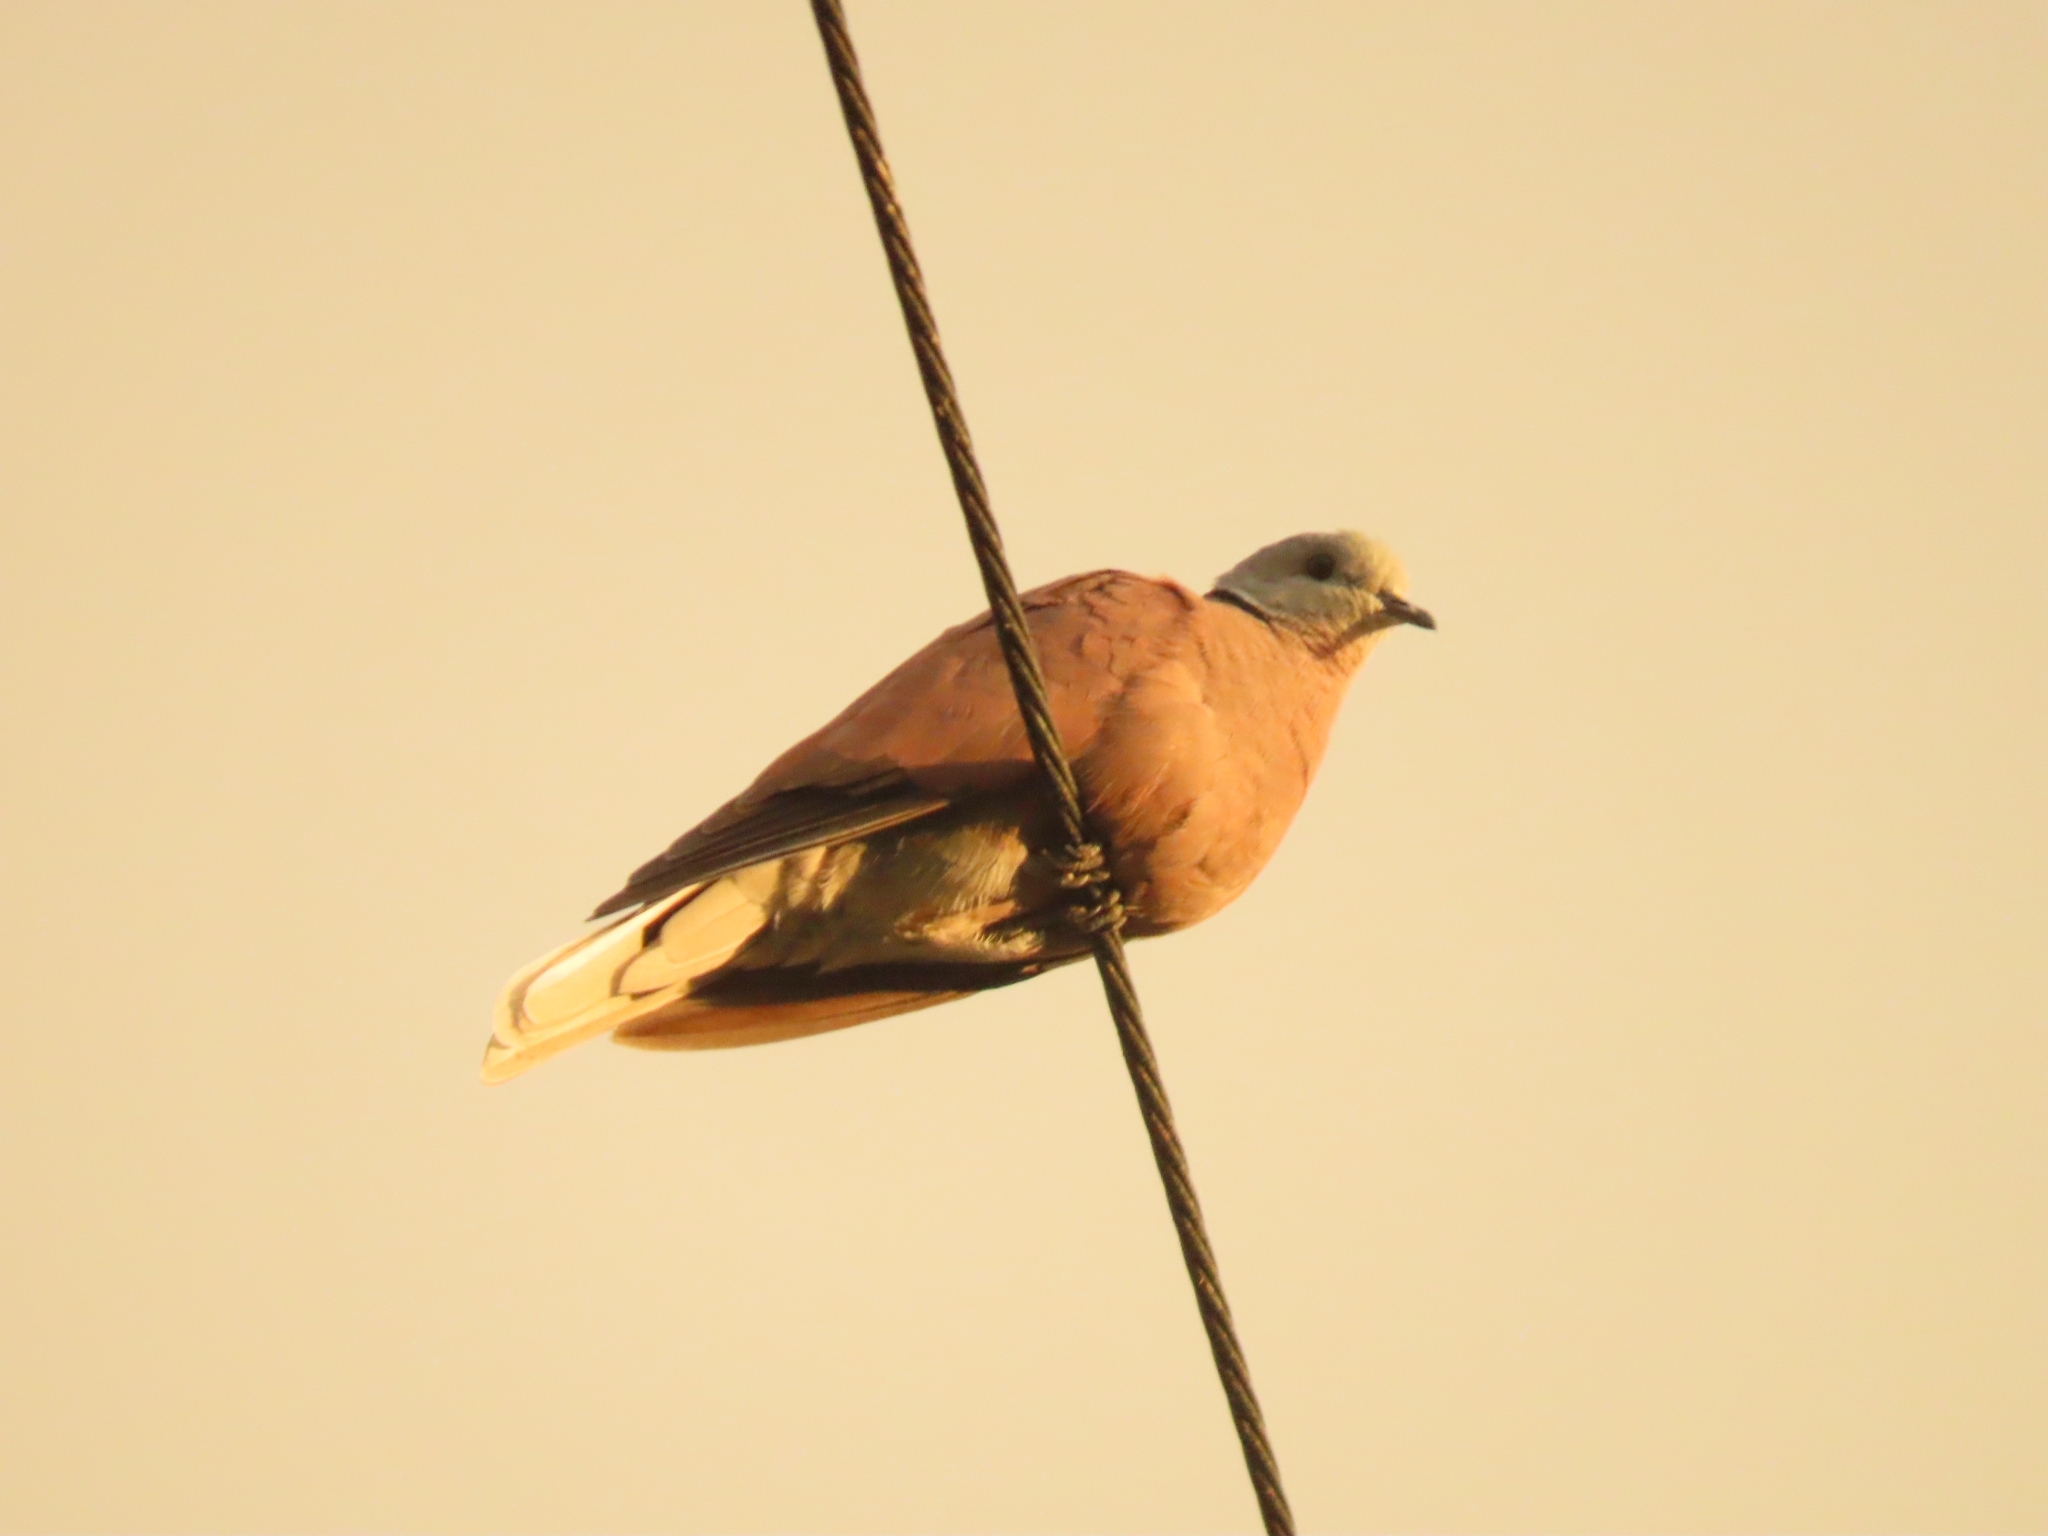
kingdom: Animalia
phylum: Chordata
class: Aves
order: Columbiformes
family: Columbidae
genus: Streptopelia
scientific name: Streptopelia tranquebarica
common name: Red turtle dove
